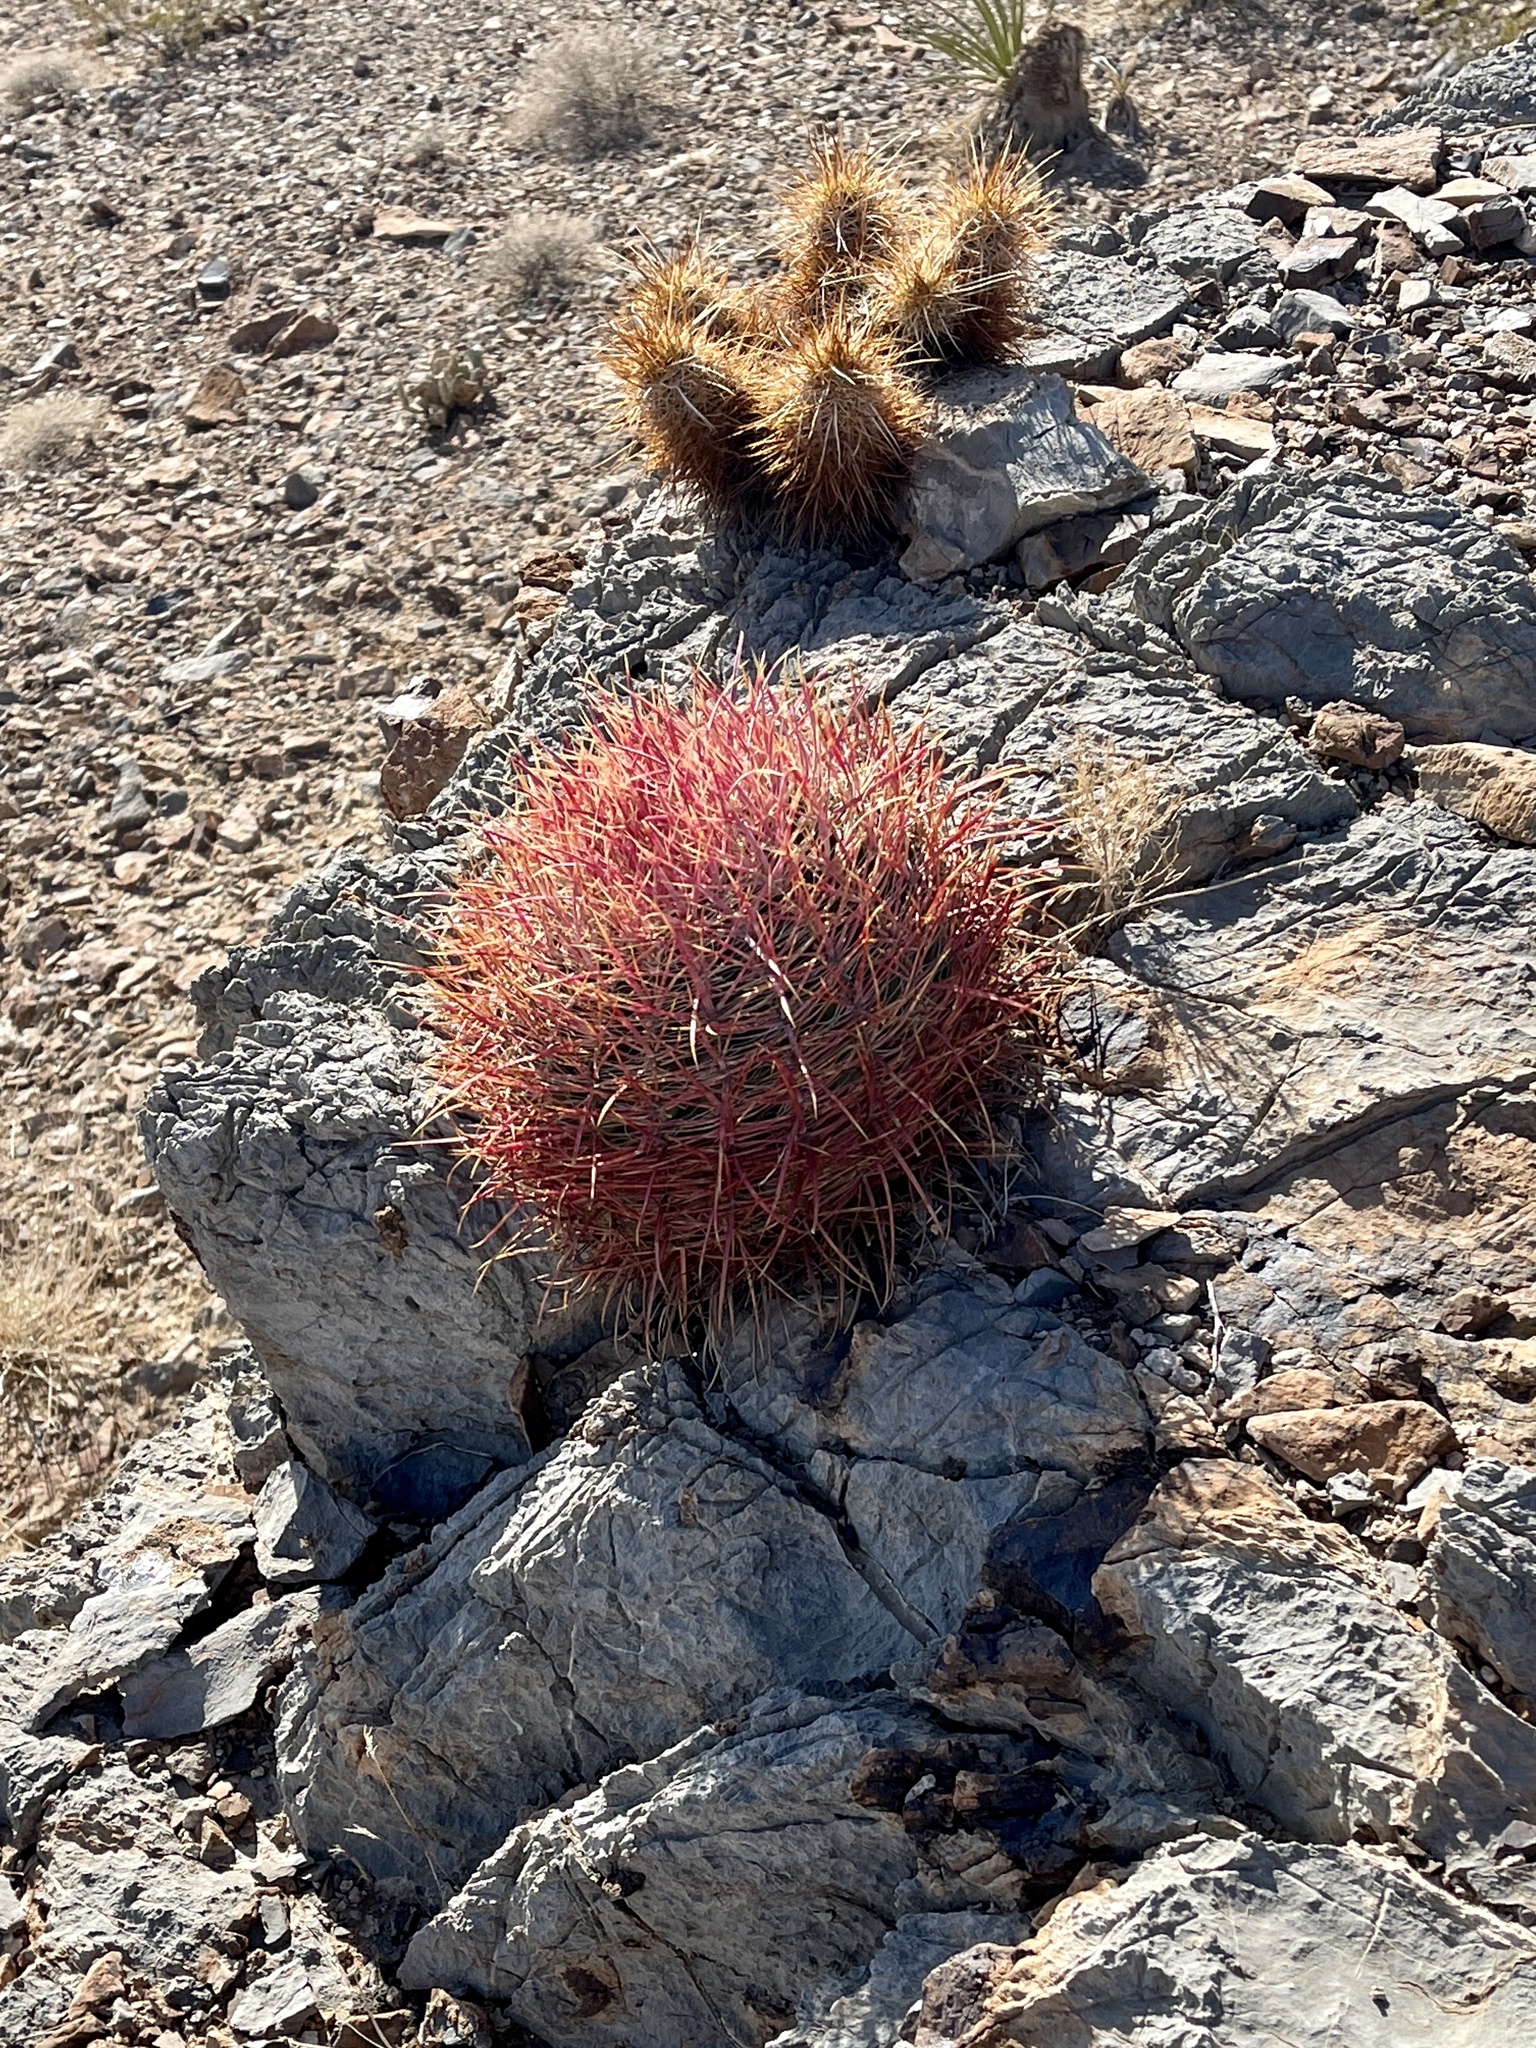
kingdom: Plantae
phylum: Tracheophyta
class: Magnoliopsida
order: Caryophyllales
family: Cactaceae
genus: Ferocactus
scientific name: Ferocactus cylindraceus
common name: California barrel cactus
